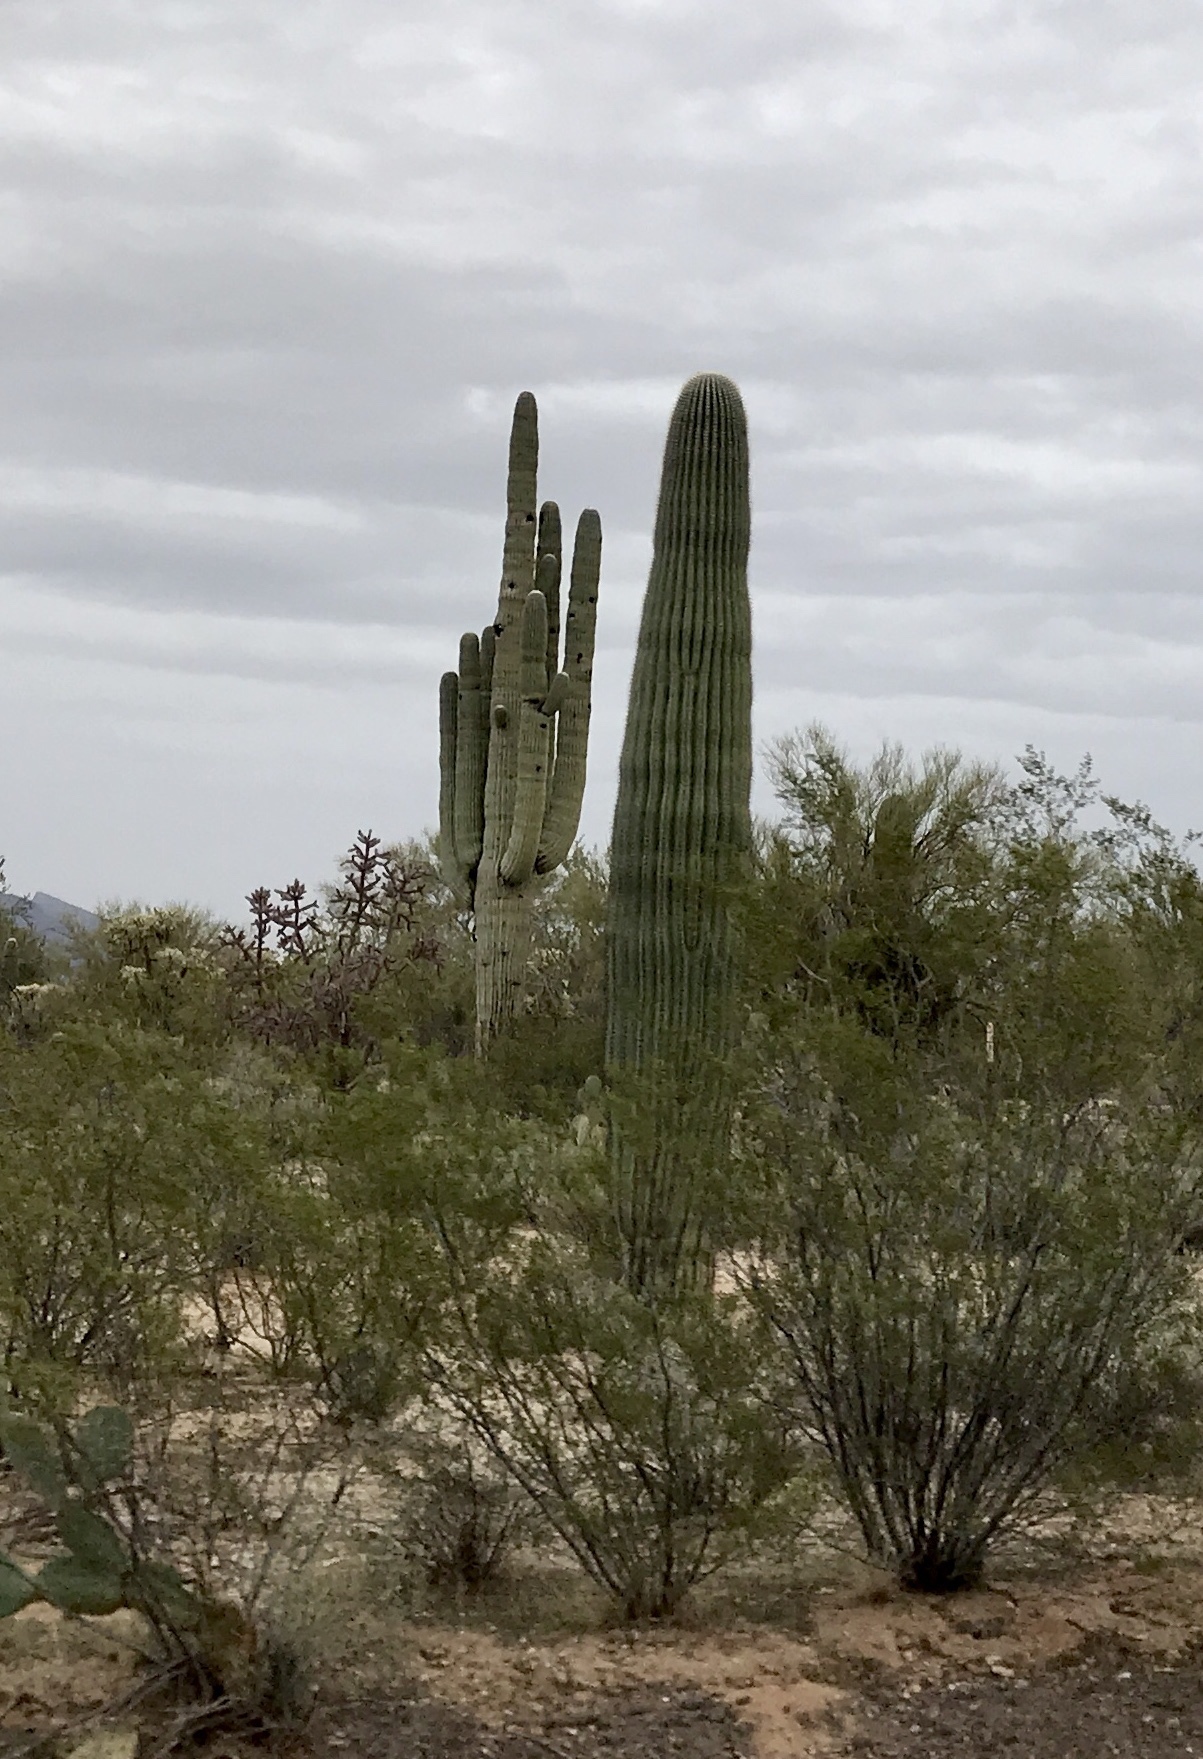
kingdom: Plantae
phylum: Tracheophyta
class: Magnoliopsida
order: Caryophyllales
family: Cactaceae
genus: Carnegiea
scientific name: Carnegiea gigantea
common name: Saguaro
